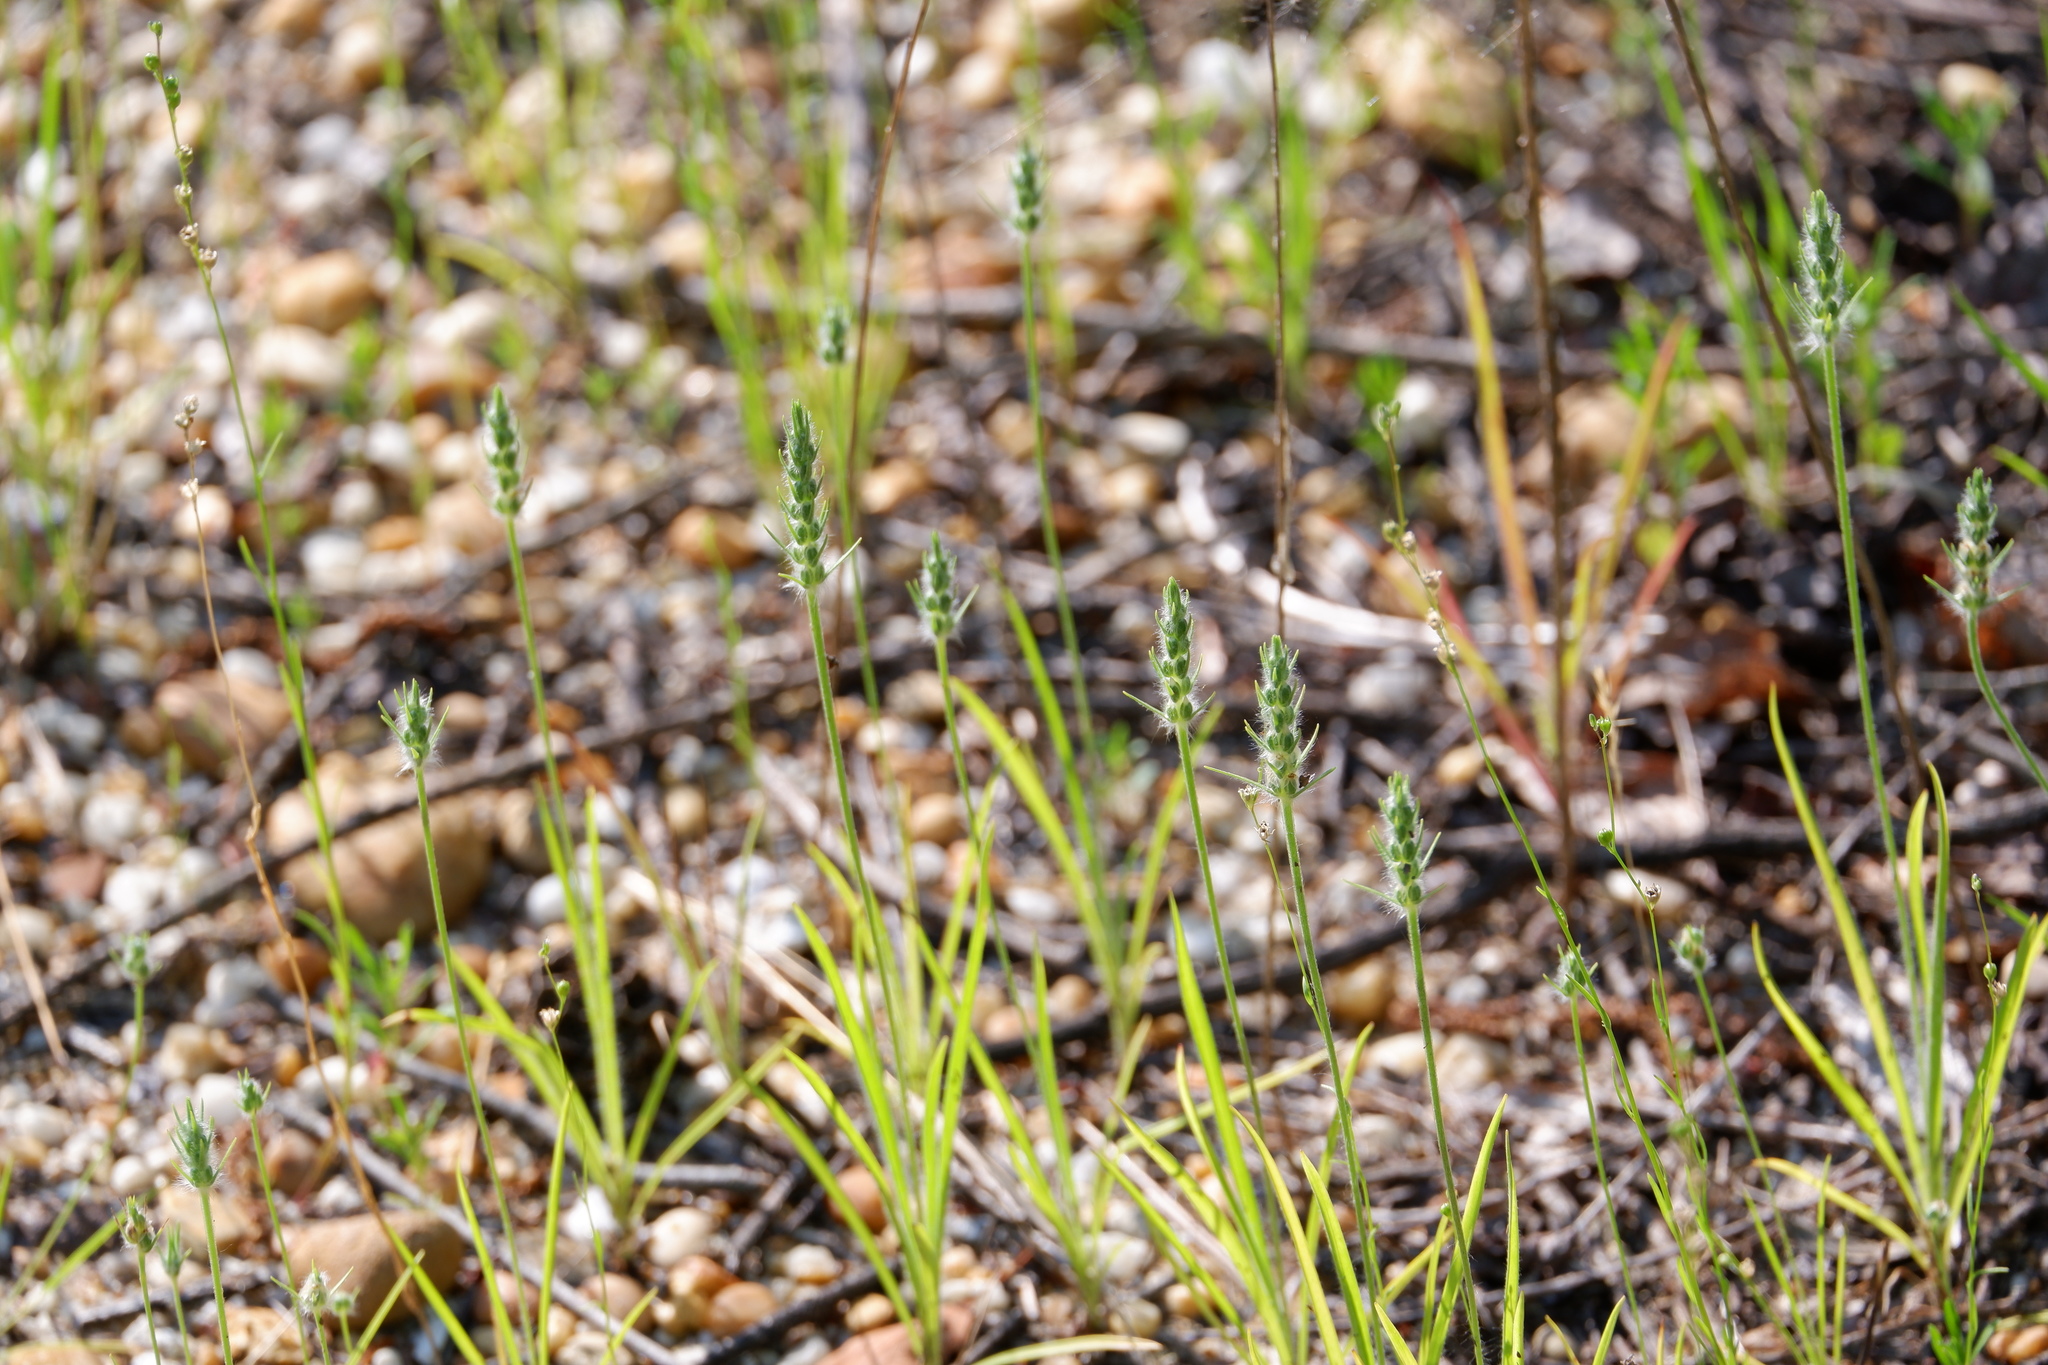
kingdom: Plantae
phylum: Tracheophyta
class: Magnoliopsida
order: Lamiales
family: Plantaginaceae
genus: Plantago
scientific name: Plantago aristata
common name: Bracted plantain
